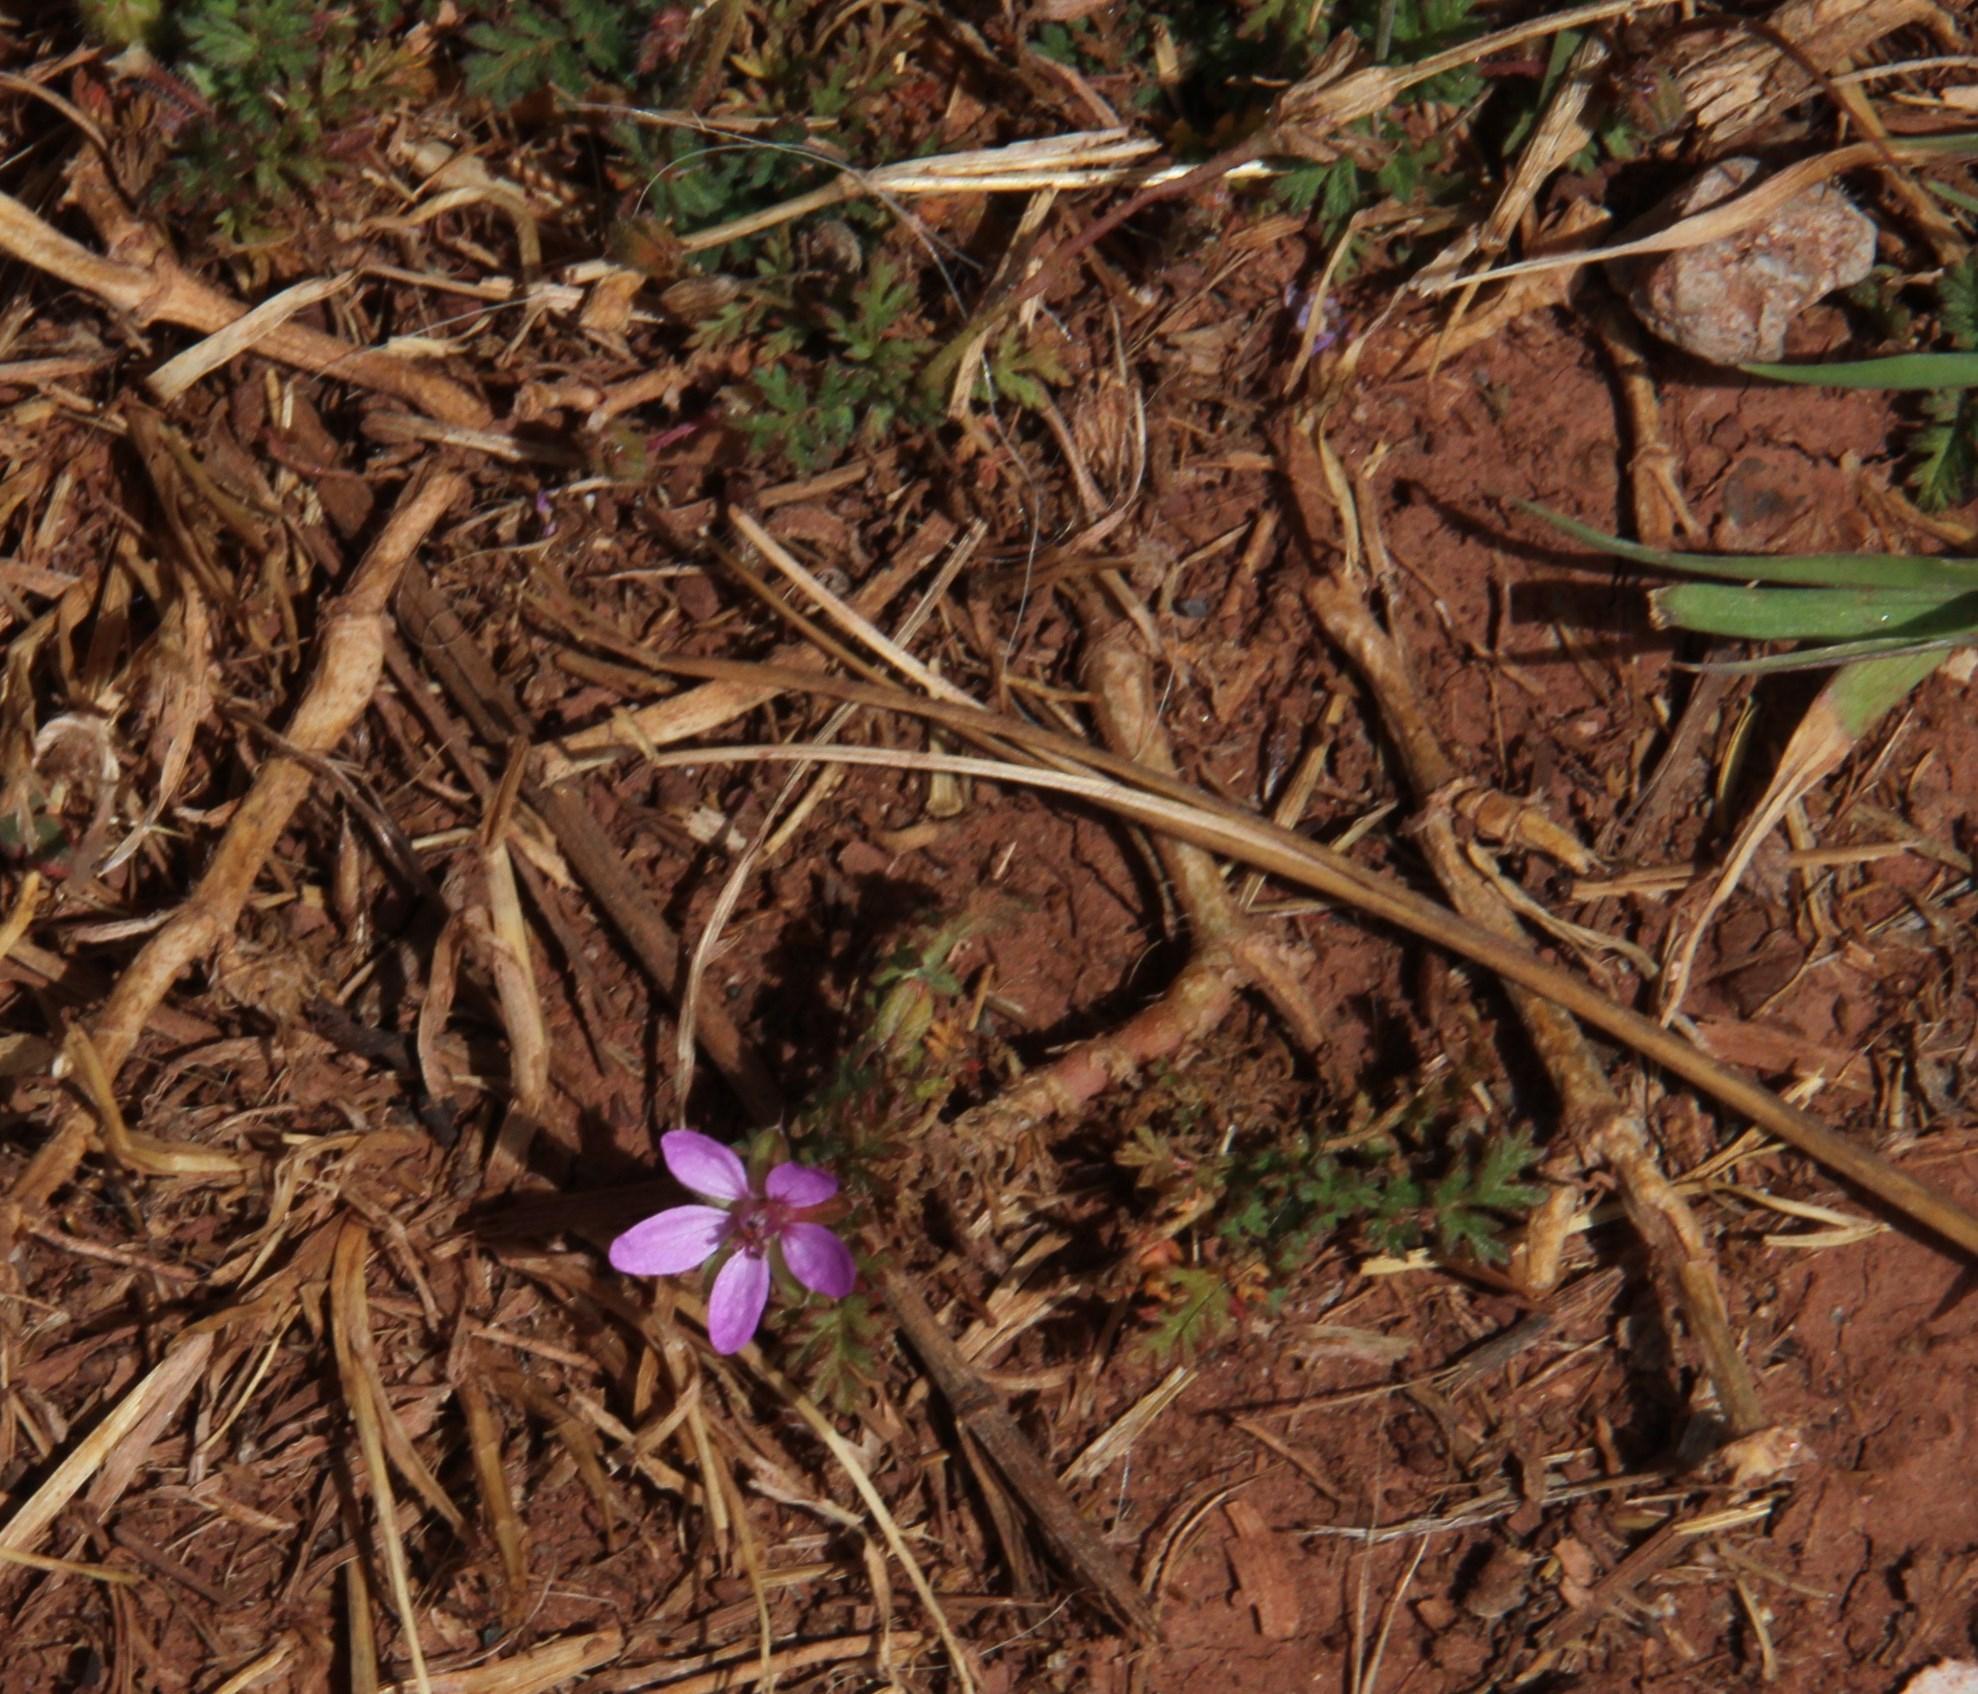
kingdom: Plantae
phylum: Tracheophyta
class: Magnoliopsida
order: Geraniales
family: Geraniaceae
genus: Erodium
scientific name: Erodium cicutarium
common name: Common stork's-bill
